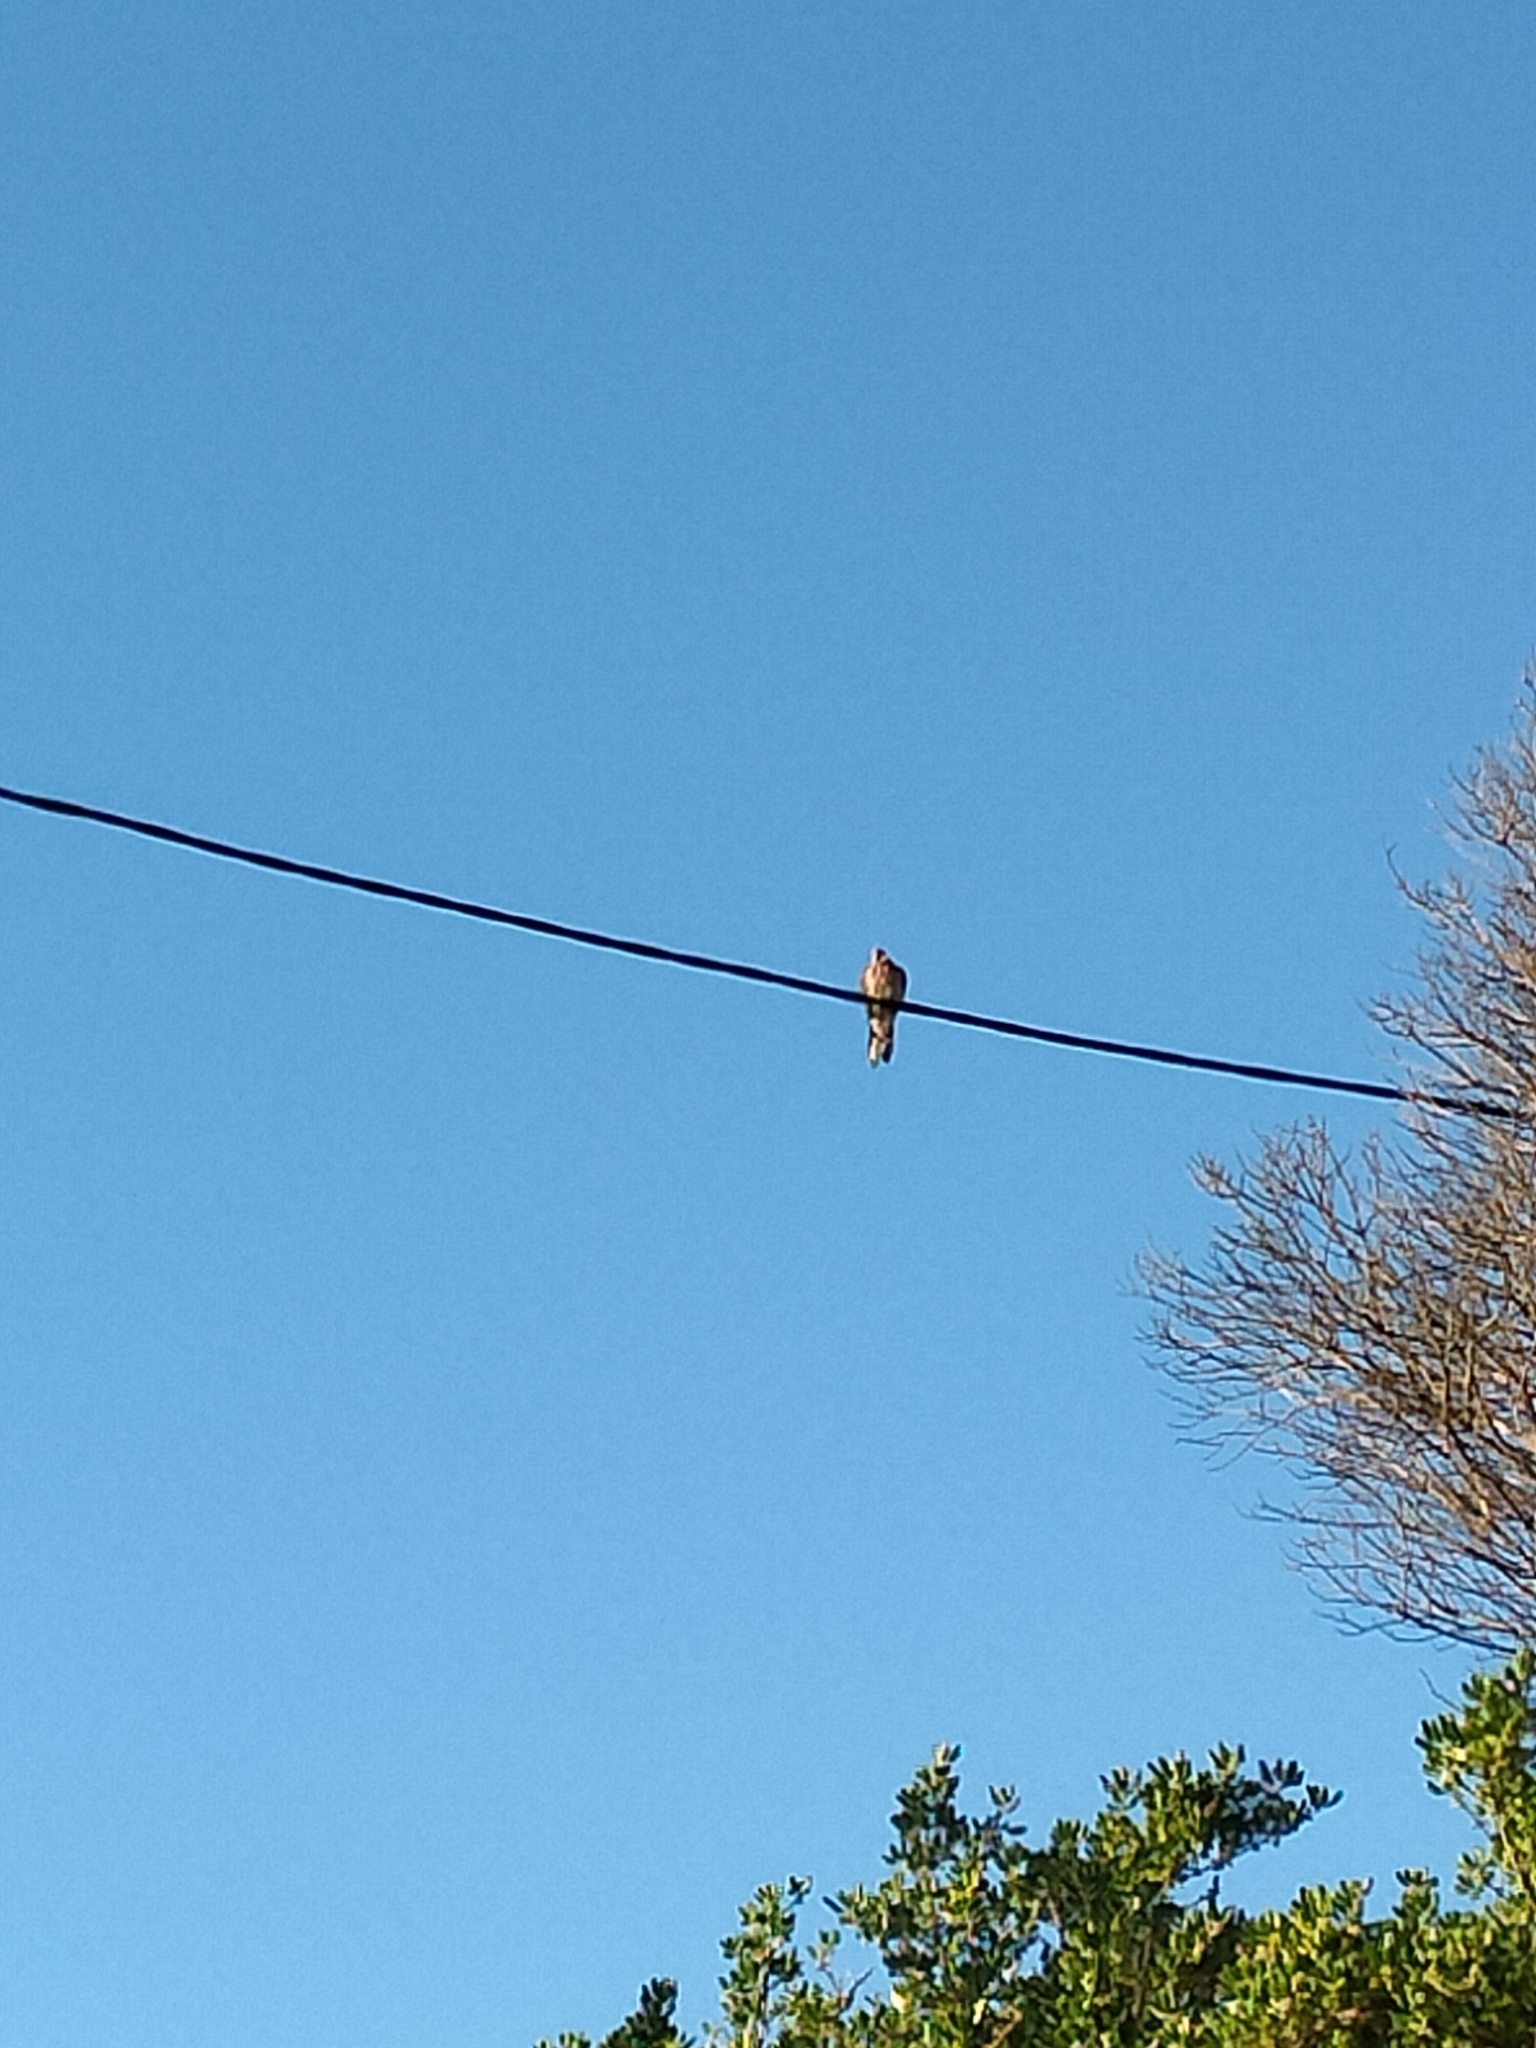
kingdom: Animalia
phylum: Chordata
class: Aves
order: Columbiformes
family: Columbidae
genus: Spilopelia
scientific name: Spilopelia chinensis
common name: Spotted dove
